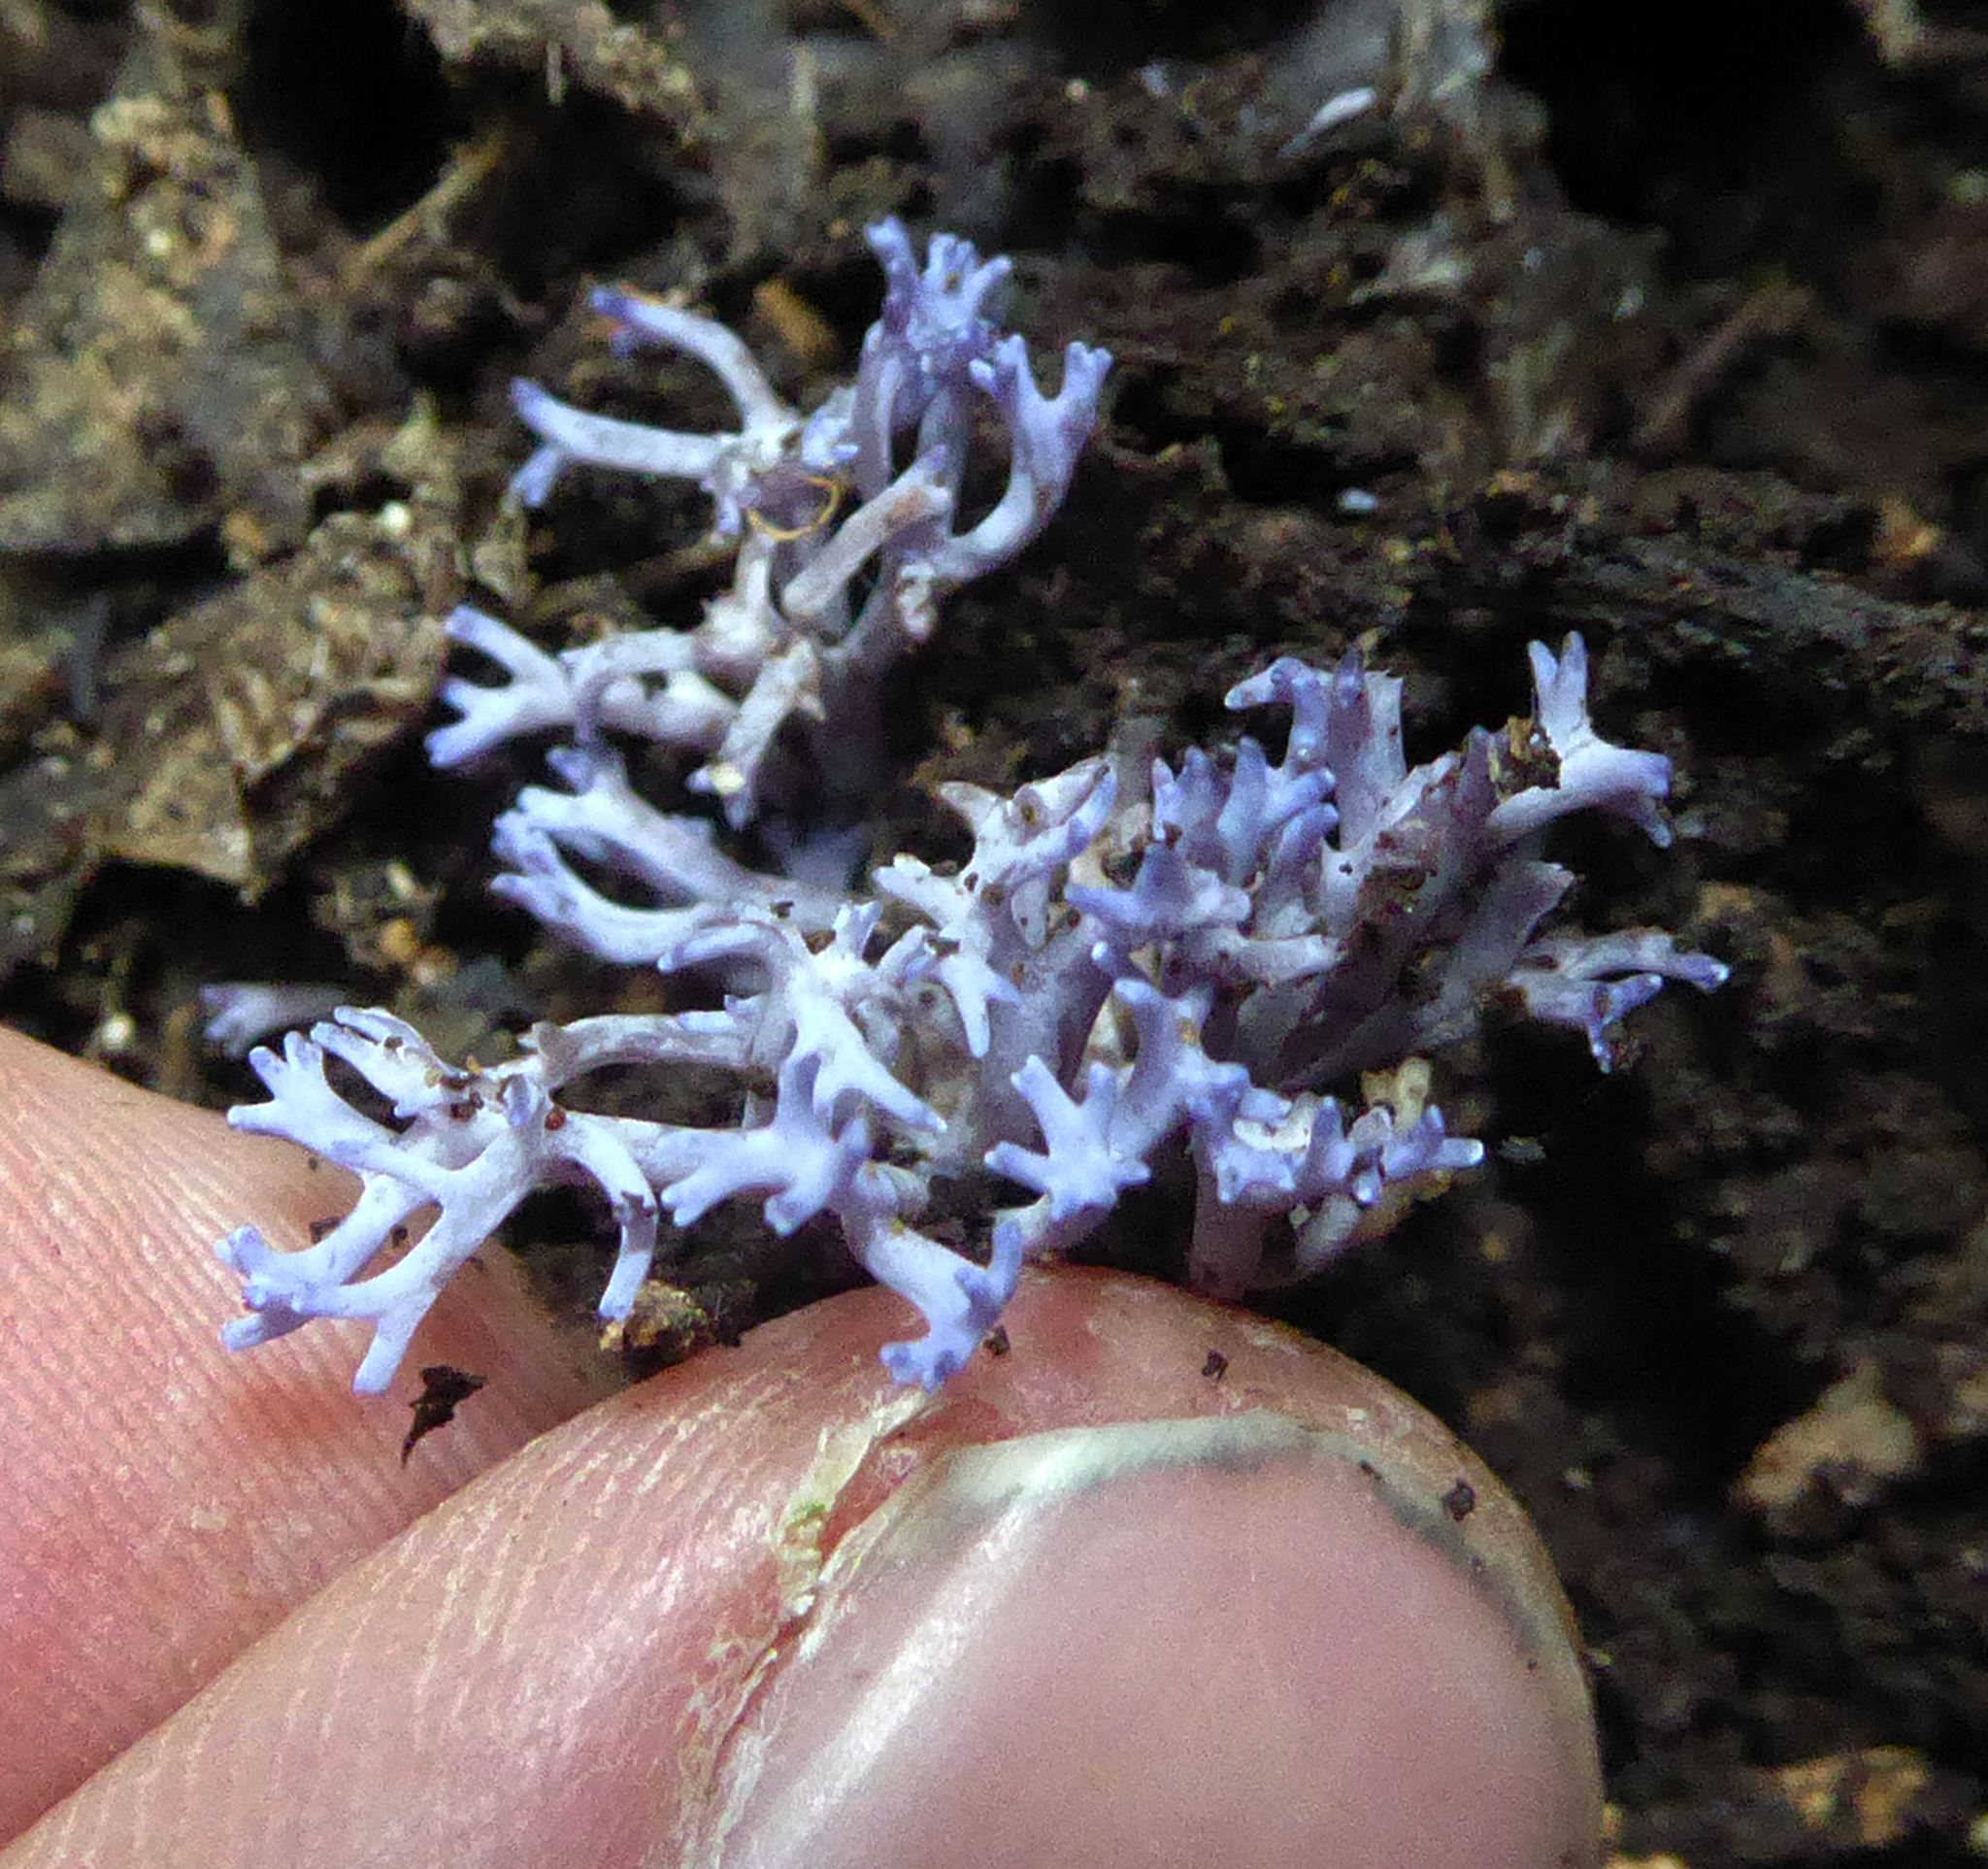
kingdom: Fungi
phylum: Basidiomycota
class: Agaricomycetes
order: Agaricales
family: Clavariaceae
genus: Ramariopsis
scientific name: Ramariopsis pulchella
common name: Lilac coral
